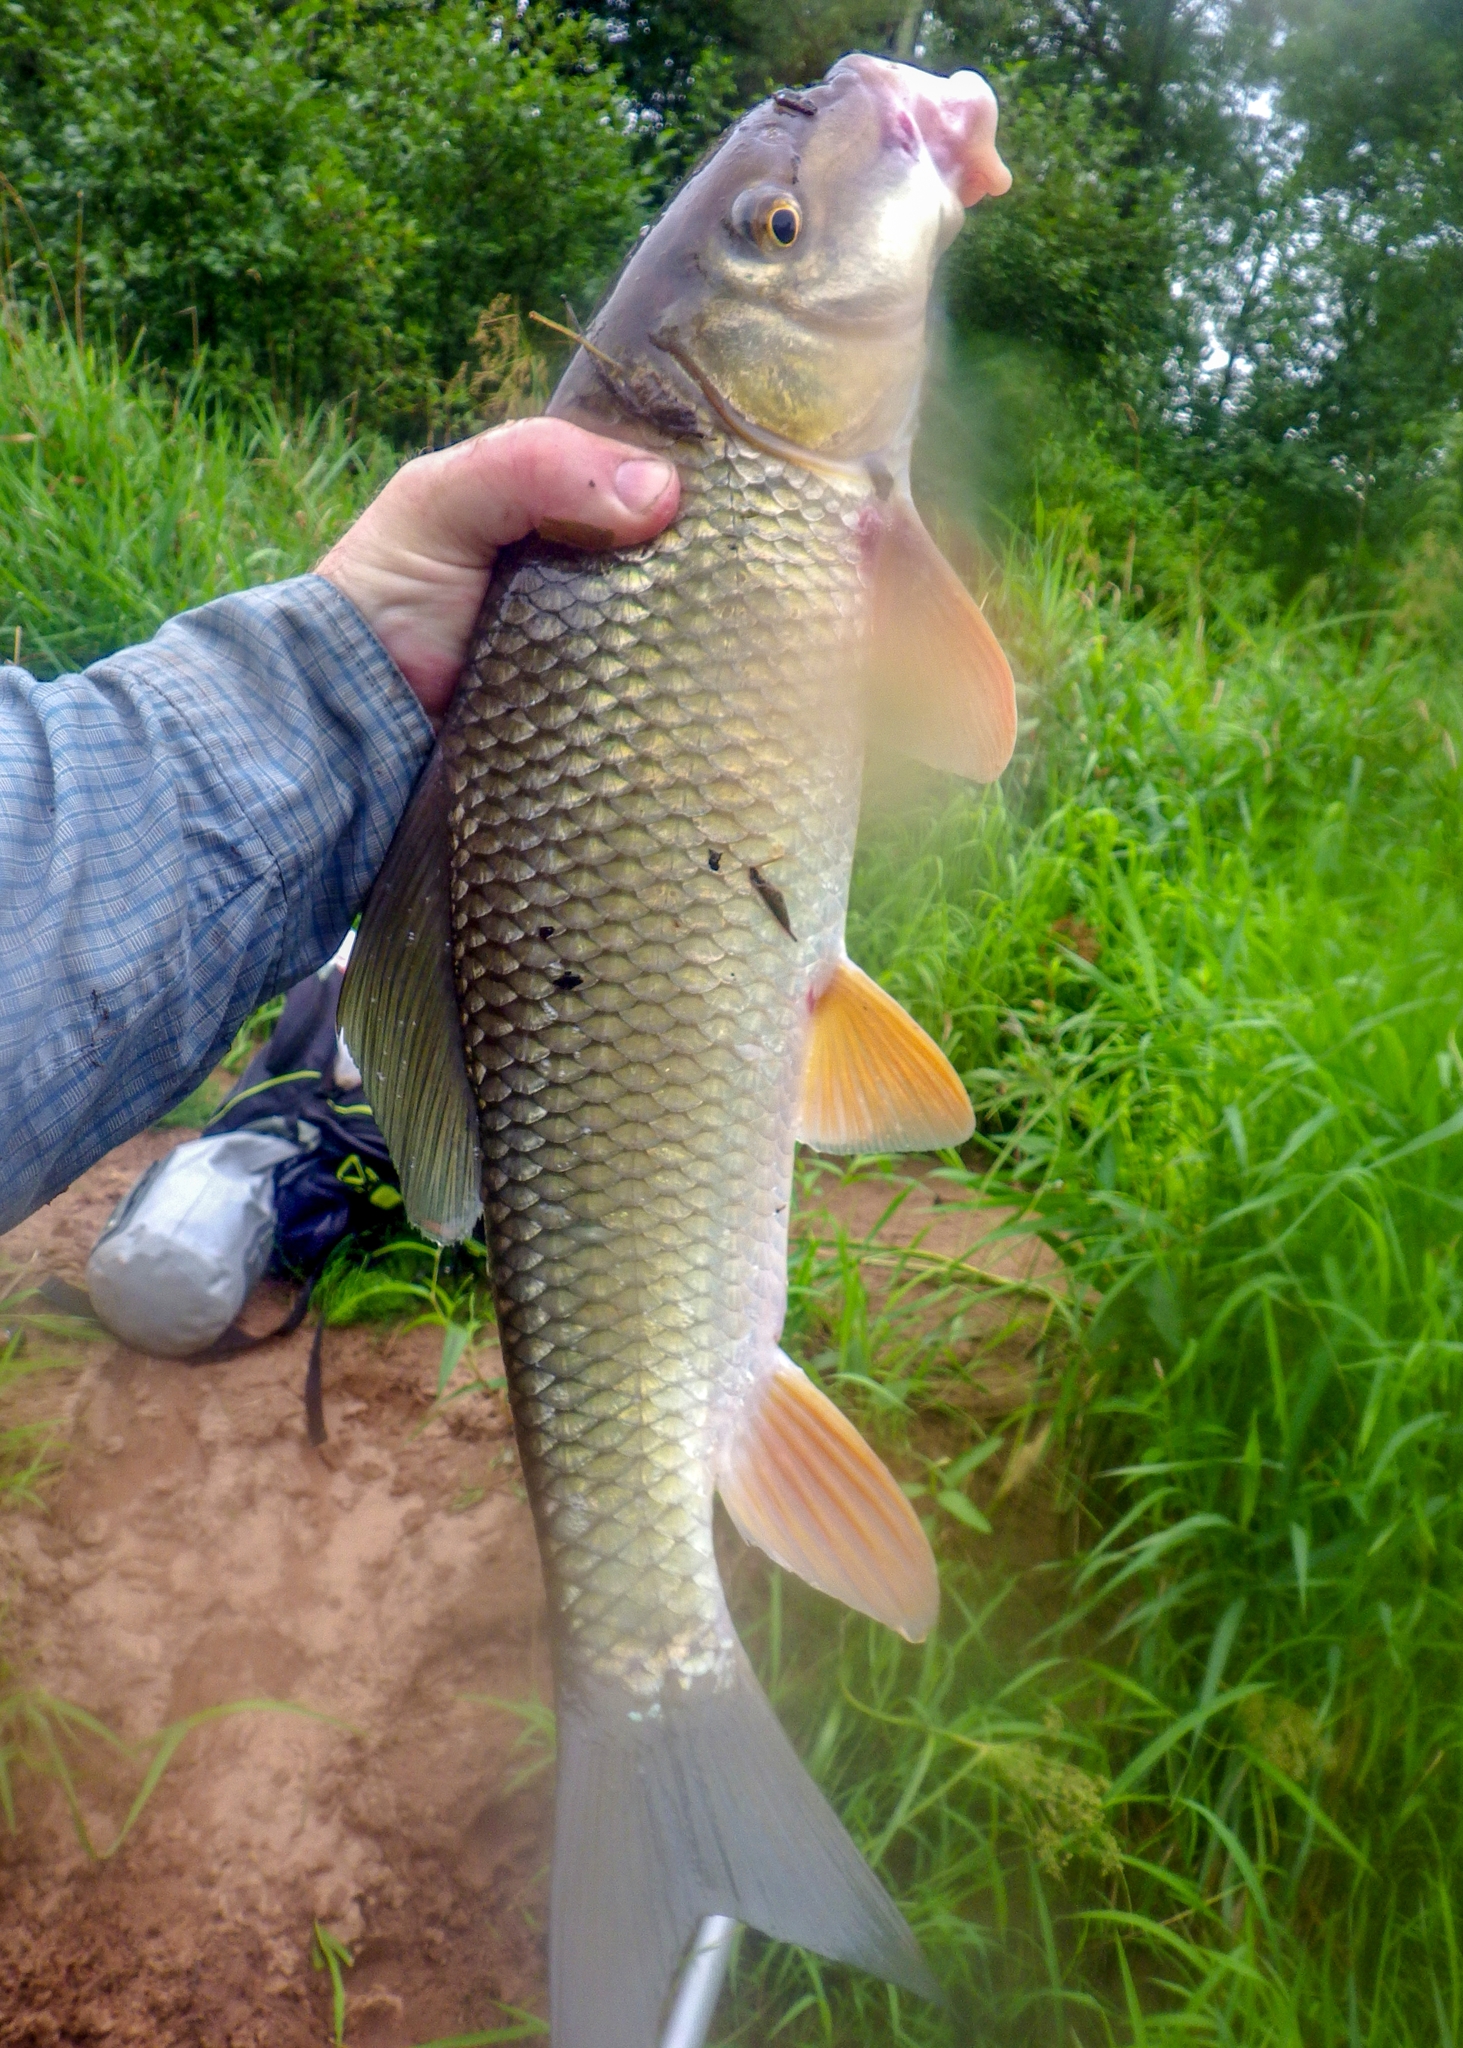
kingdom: Animalia
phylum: Chordata
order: Cypriniformes
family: Catostomidae
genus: Moxostoma
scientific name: Moxostoma anisurum
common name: Silver redhorse
